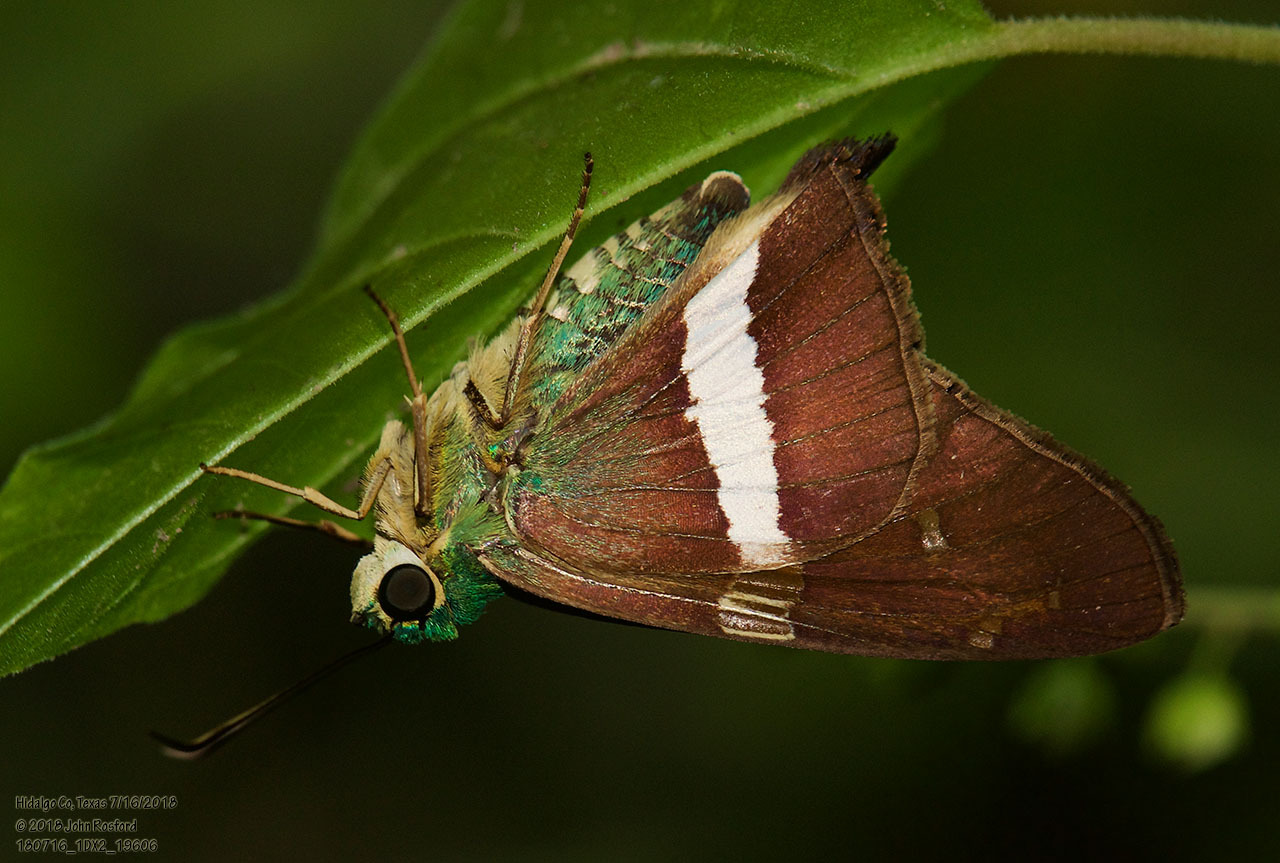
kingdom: Animalia
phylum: Arthropoda
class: Insecta
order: Lepidoptera
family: Hesperiidae
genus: Aguna
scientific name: Aguna claxon
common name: Emerald aguna
